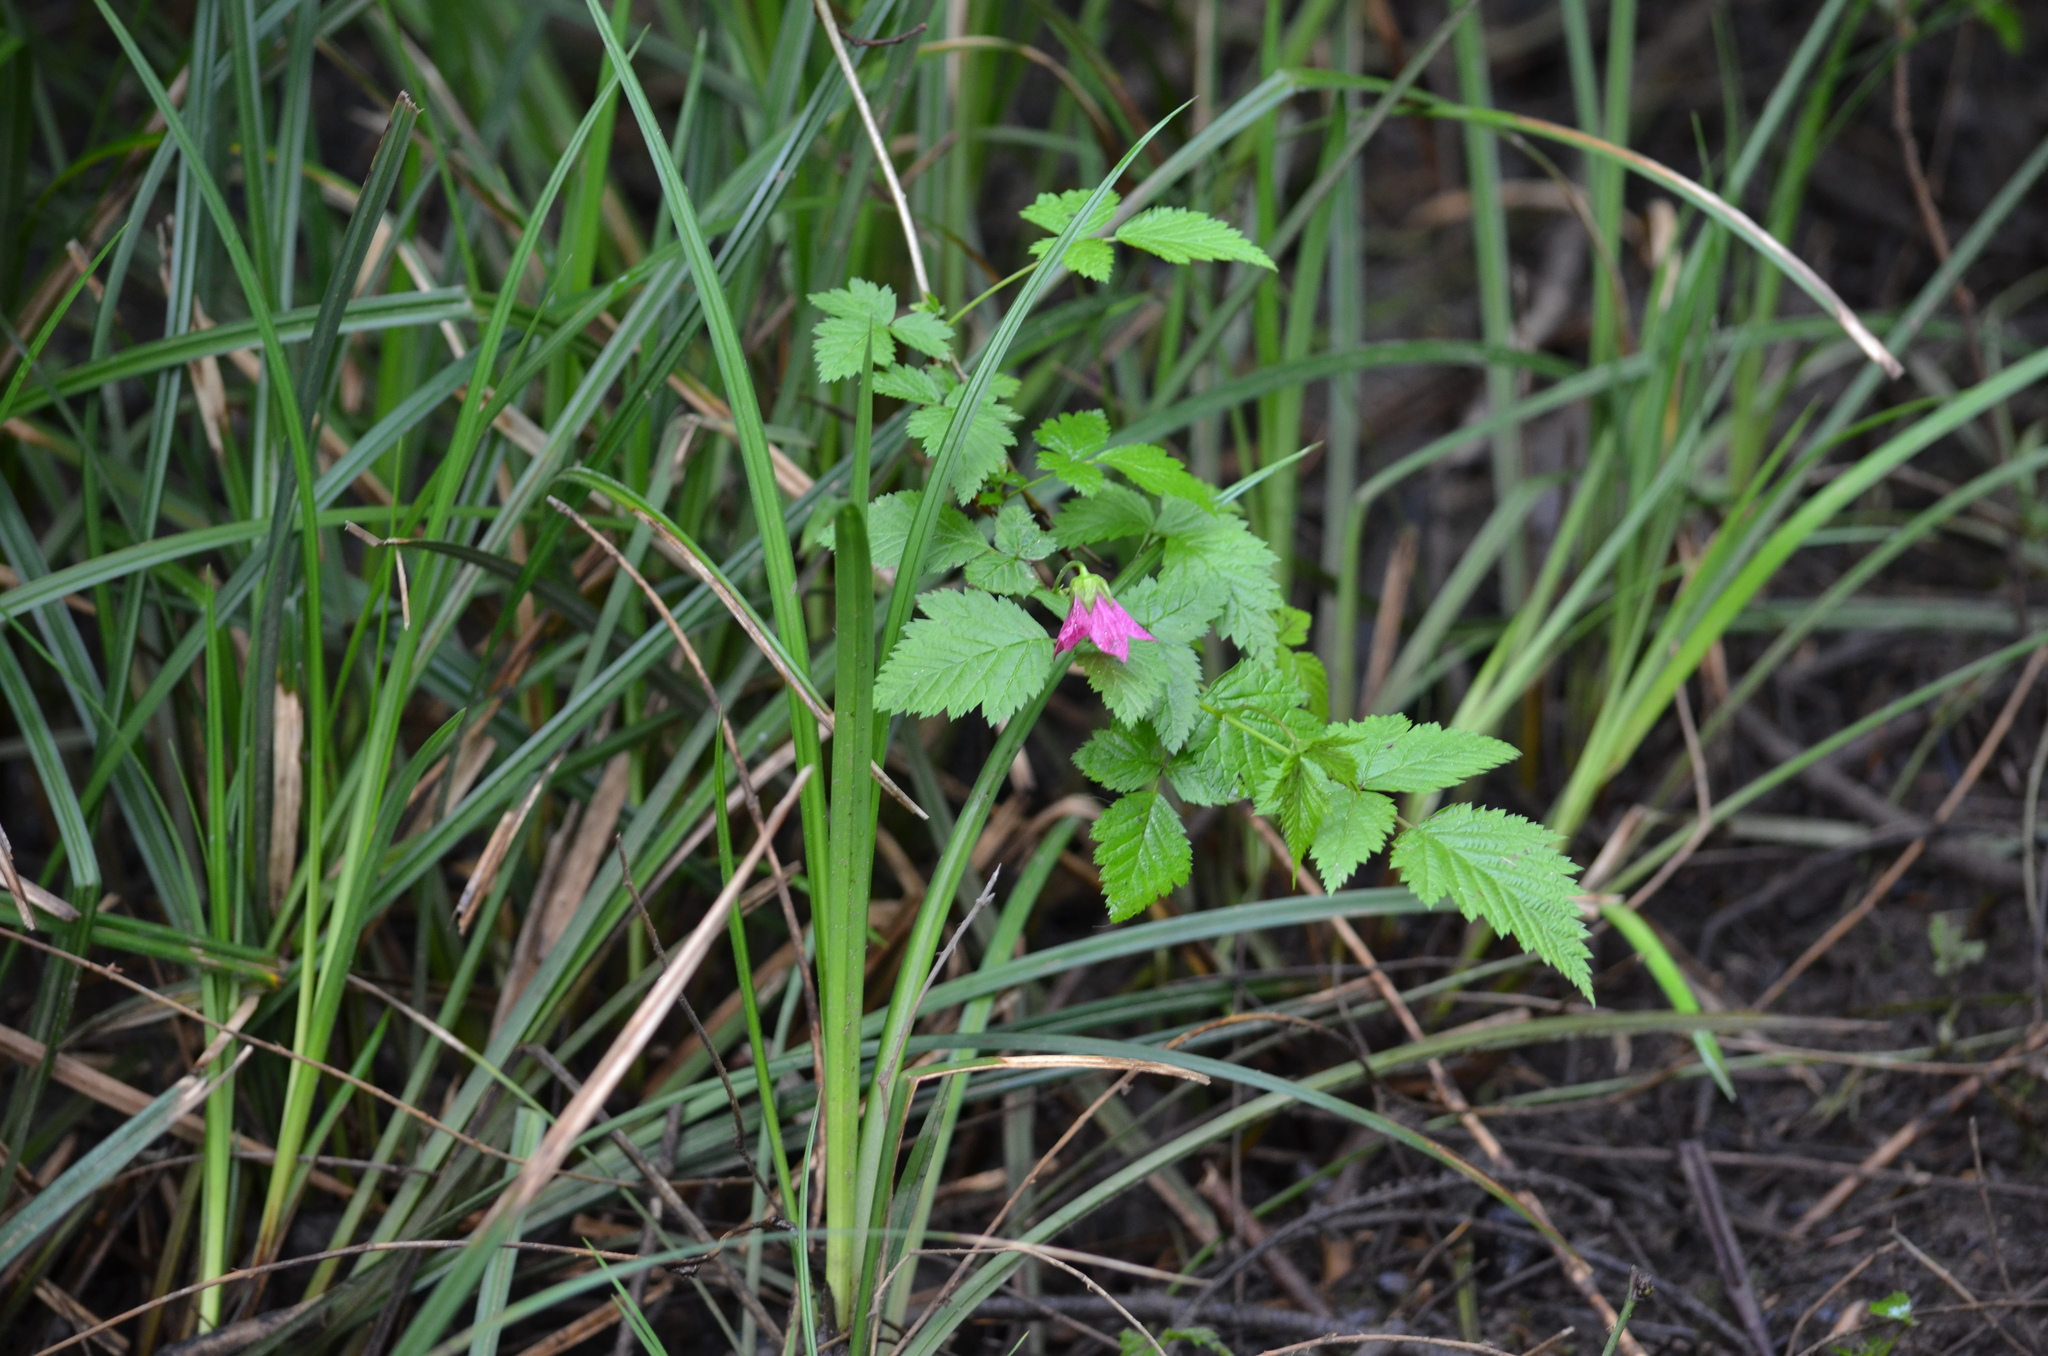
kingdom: Plantae
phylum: Tracheophyta
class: Magnoliopsida
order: Rosales
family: Rosaceae
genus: Rubus
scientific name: Rubus spectabilis
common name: Salmonberry
